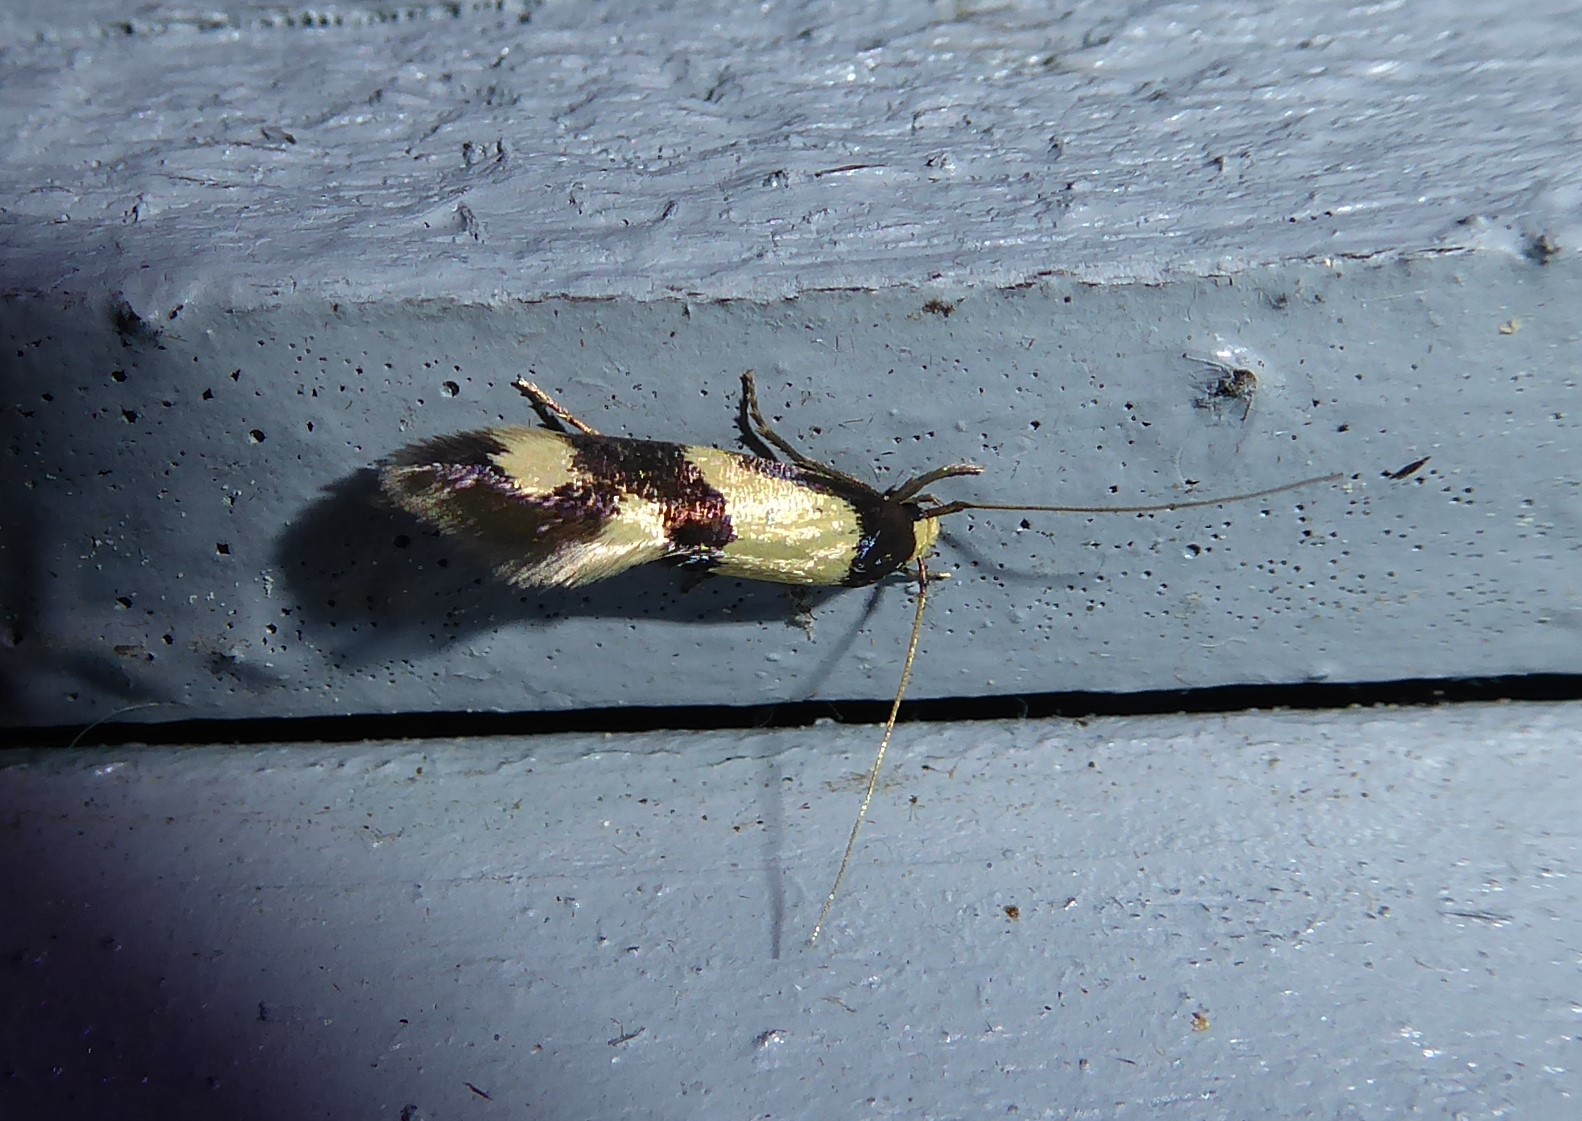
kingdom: Animalia
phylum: Arthropoda
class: Insecta
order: Lepidoptera
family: Tineidae
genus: Opogona
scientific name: Opogona comptella
